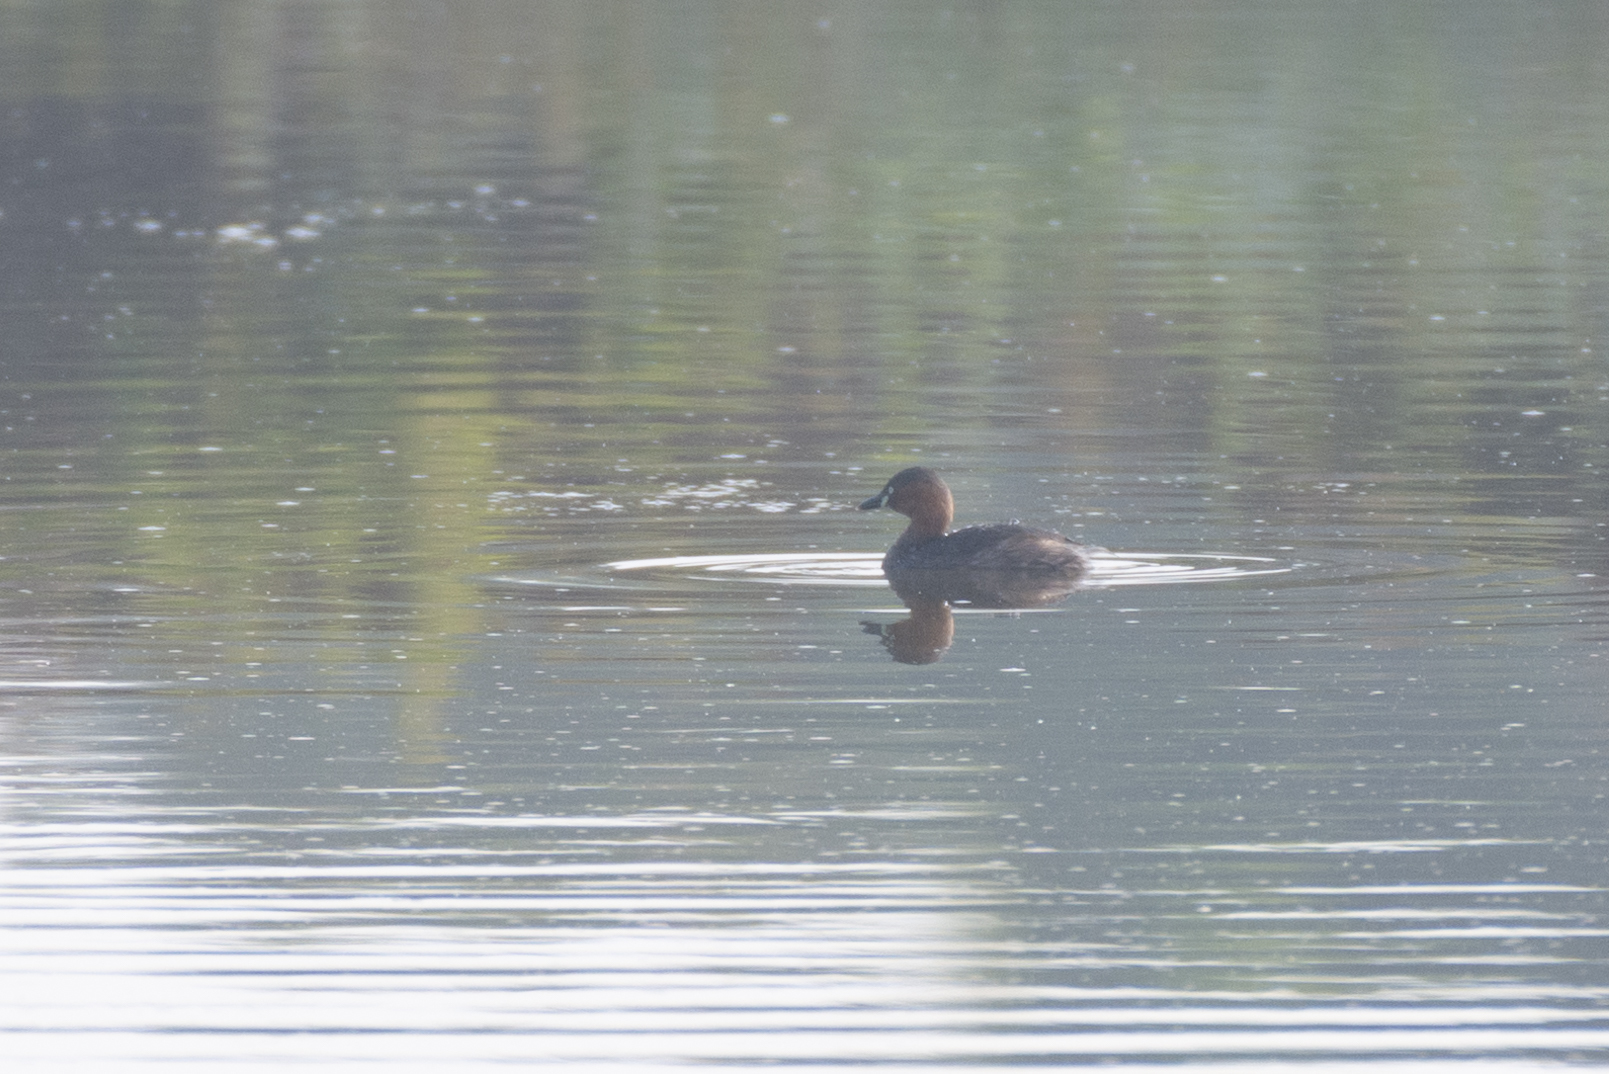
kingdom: Animalia
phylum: Chordata
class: Aves
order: Podicipediformes
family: Podicipedidae
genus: Tachybaptus
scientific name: Tachybaptus ruficollis
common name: Little grebe
